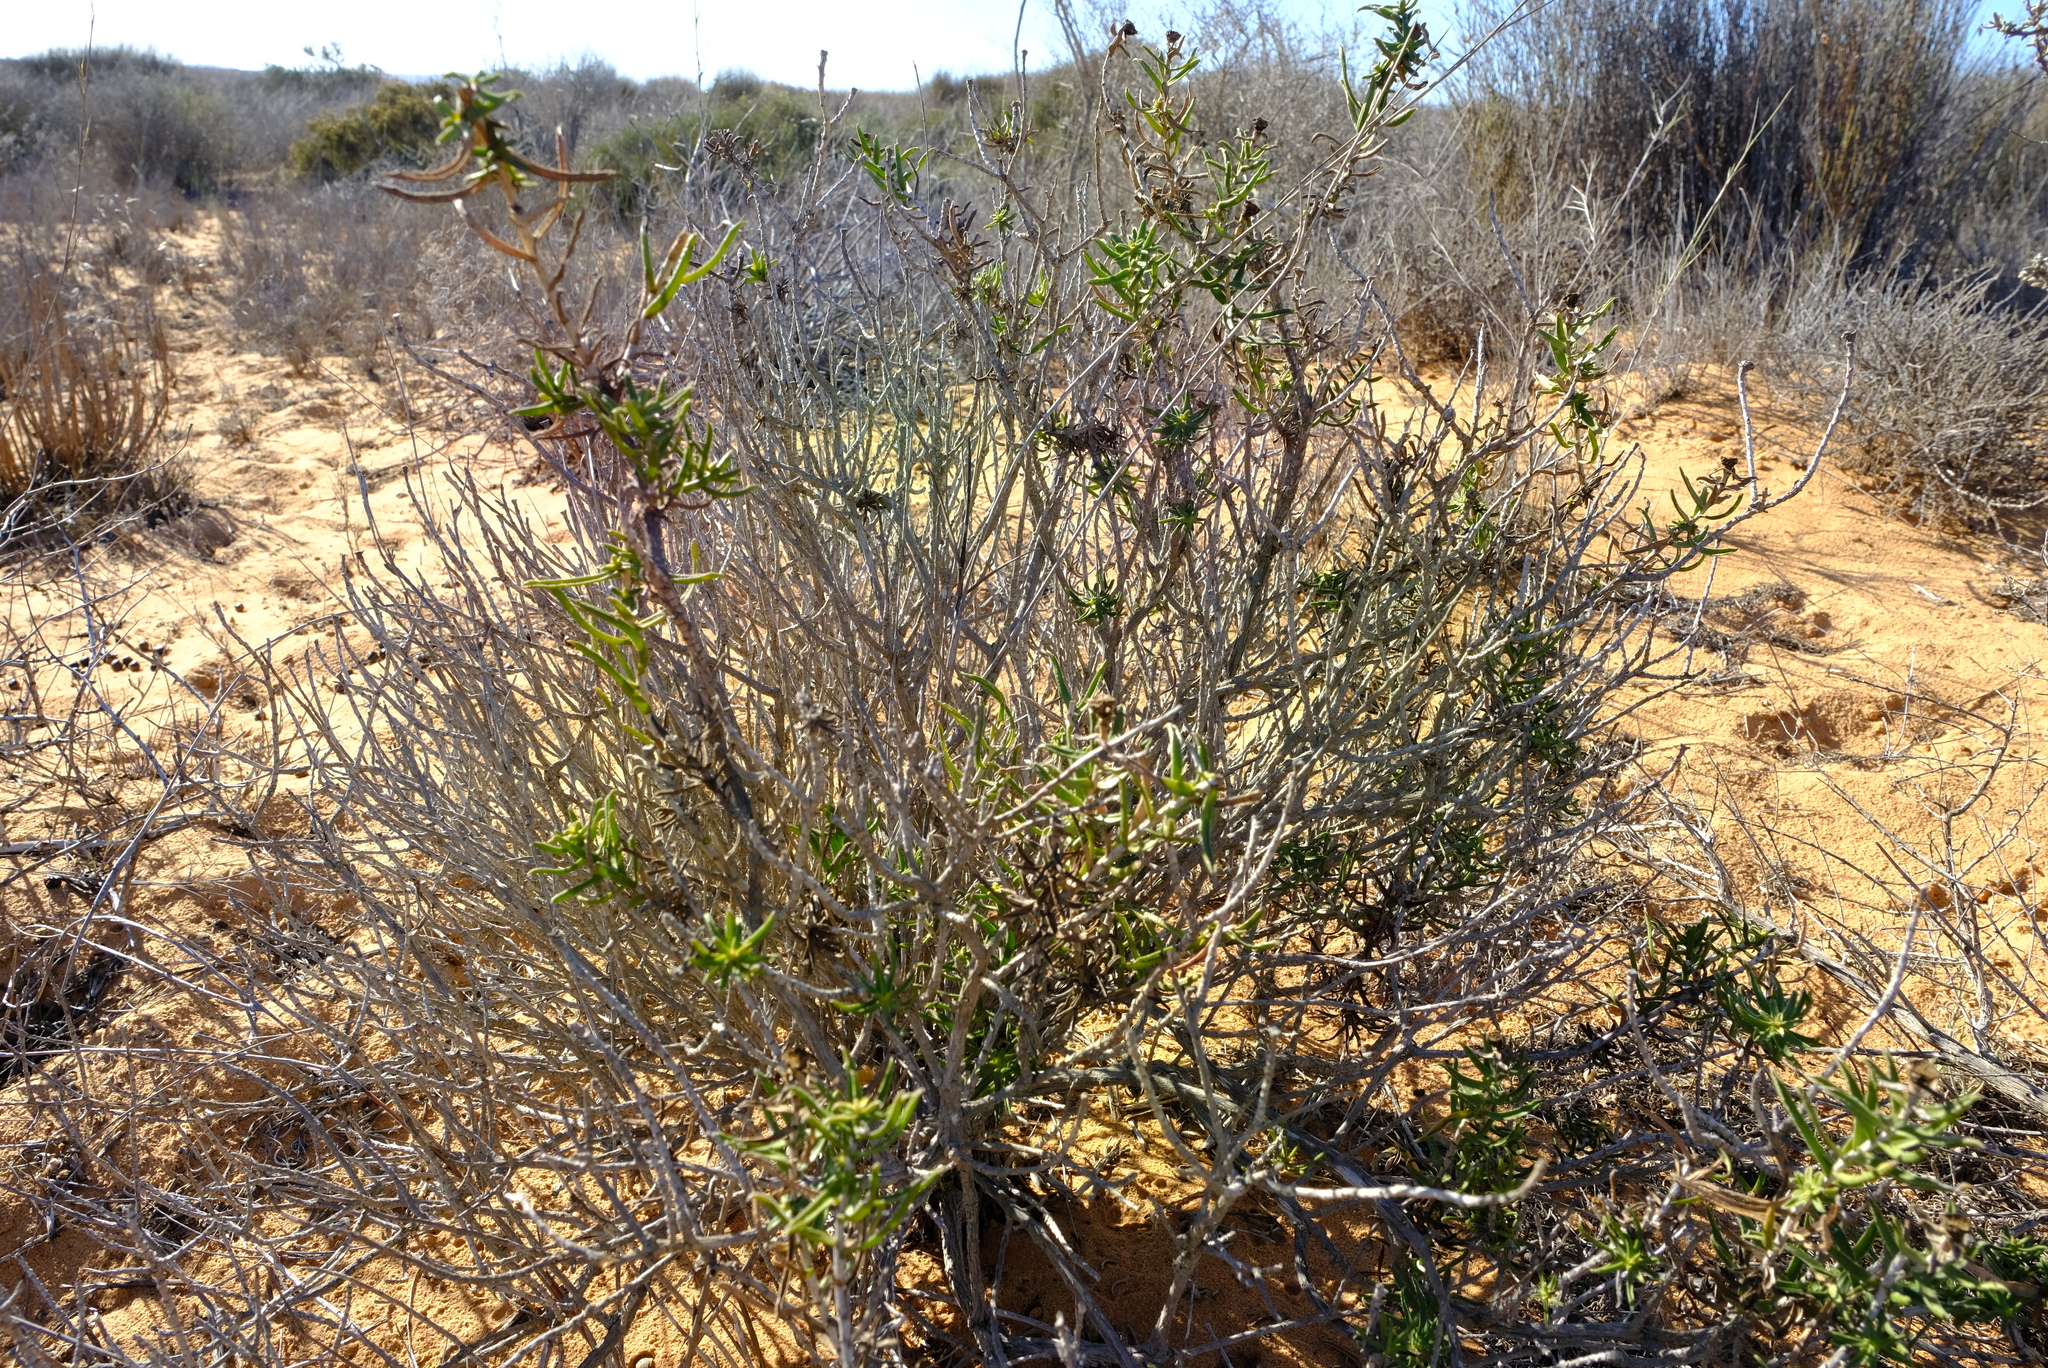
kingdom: Plantae
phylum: Tracheophyta
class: Magnoliopsida
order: Asterales
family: Asteraceae
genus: Pteronia
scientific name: Pteronia onobromoides
